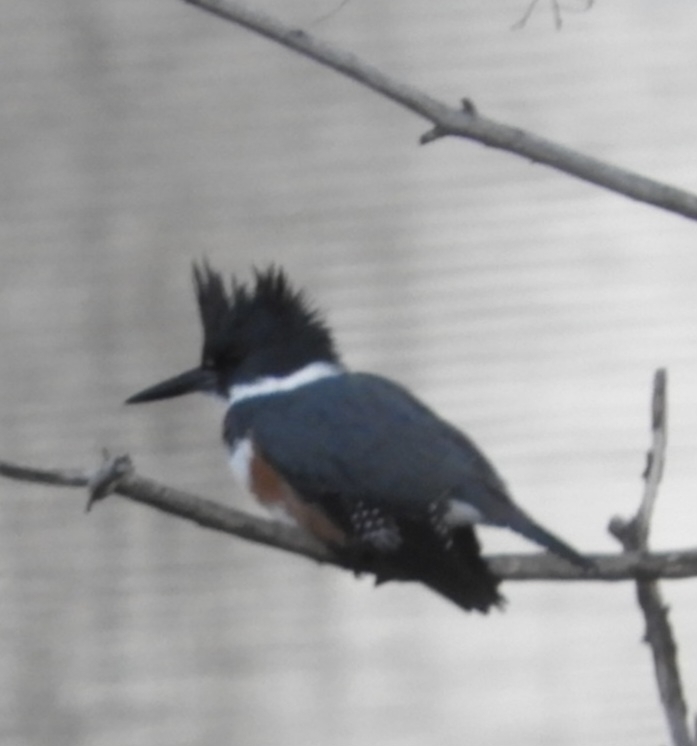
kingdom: Animalia
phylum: Chordata
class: Aves
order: Coraciiformes
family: Alcedinidae
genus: Megaceryle
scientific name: Megaceryle alcyon
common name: Belted kingfisher
